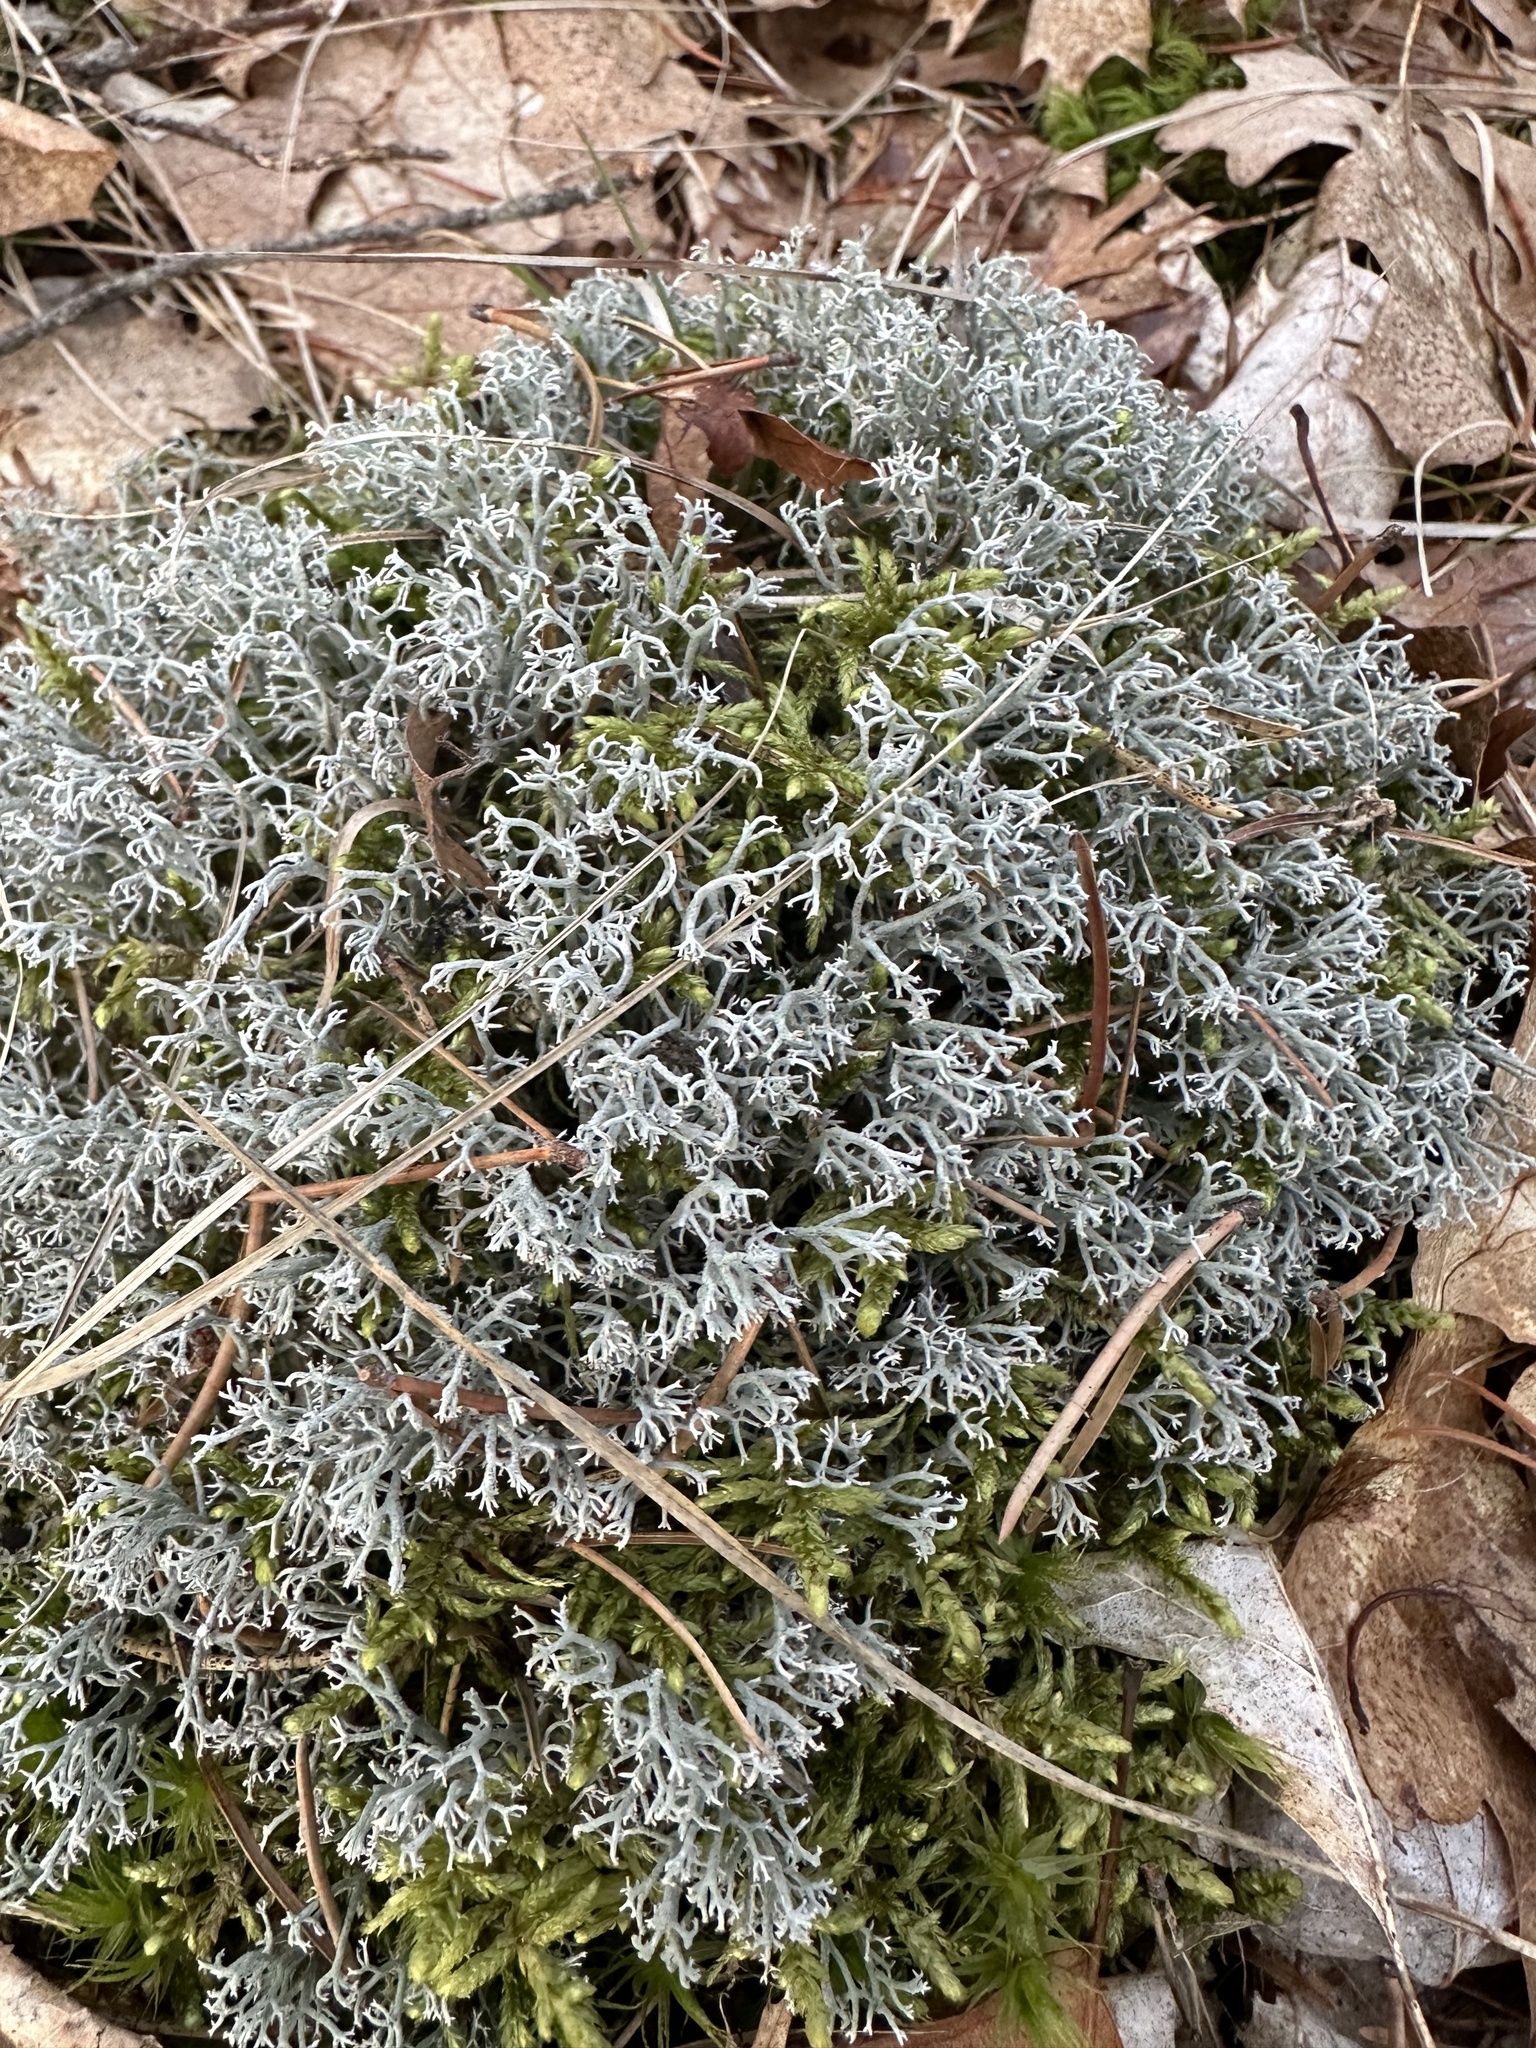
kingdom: Fungi
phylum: Ascomycota
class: Lecanoromycetes
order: Lecanorales
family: Cladoniaceae
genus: Cladonia
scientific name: Cladonia rangiferina
